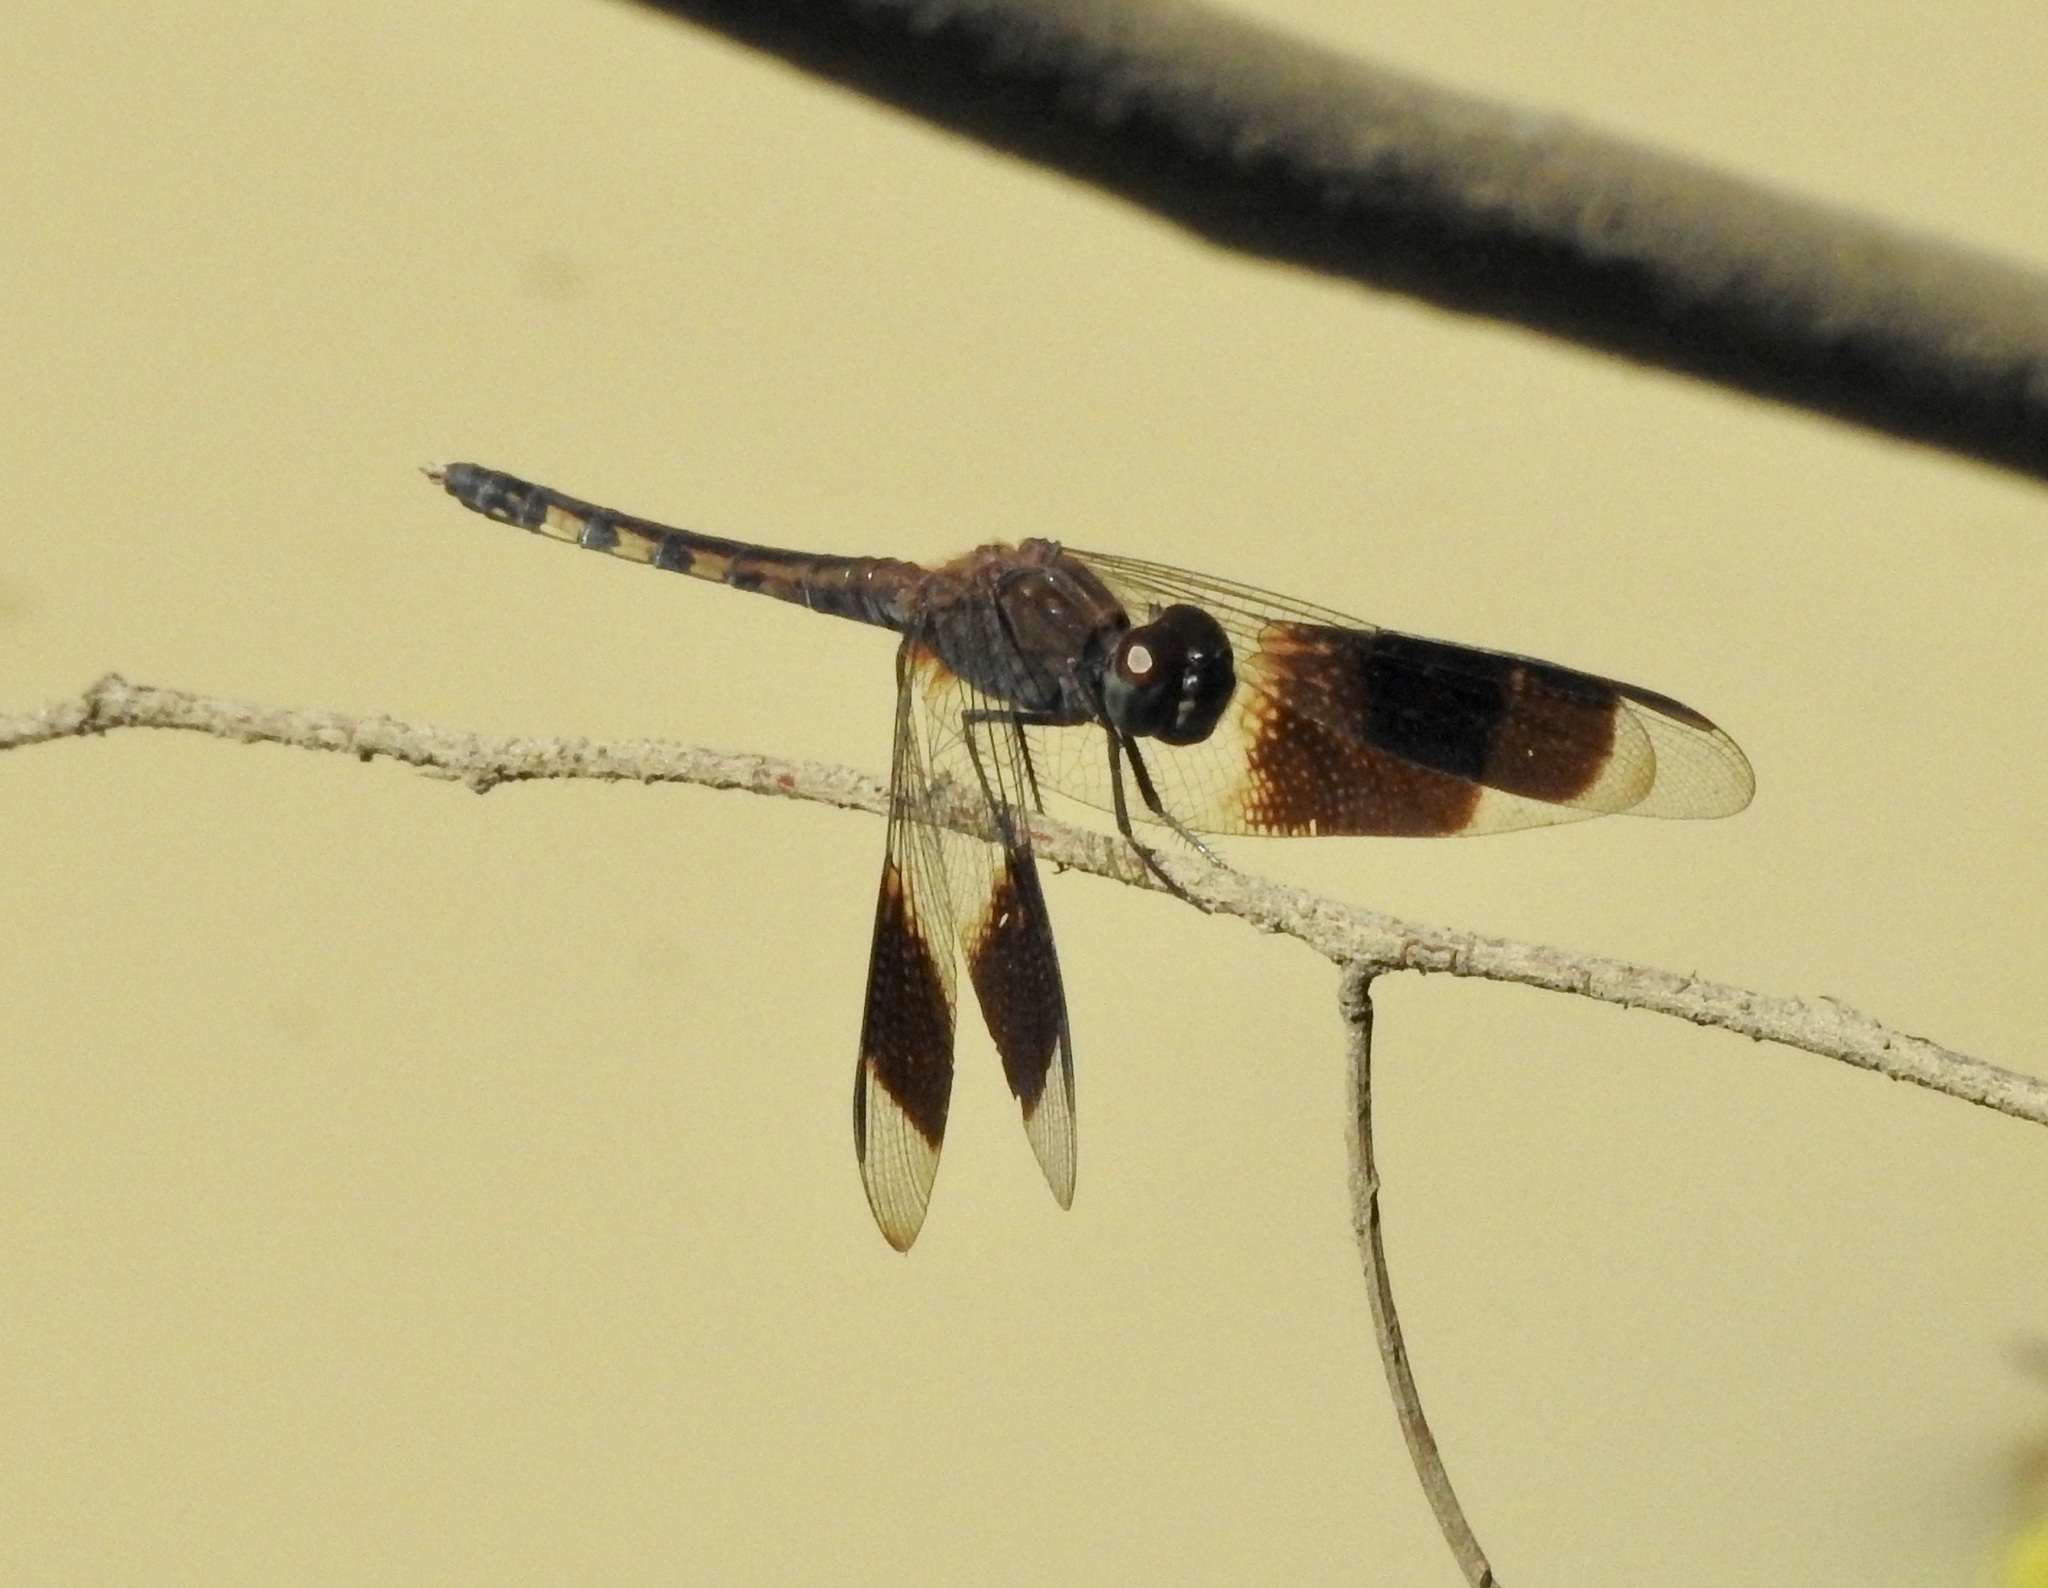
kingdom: Animalia
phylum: Arthropoda
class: Insecta
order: Odonata
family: Libellulidae
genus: Erythrodiplax
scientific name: Erythrodiplax umbrata
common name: Band-winged dragonlet
